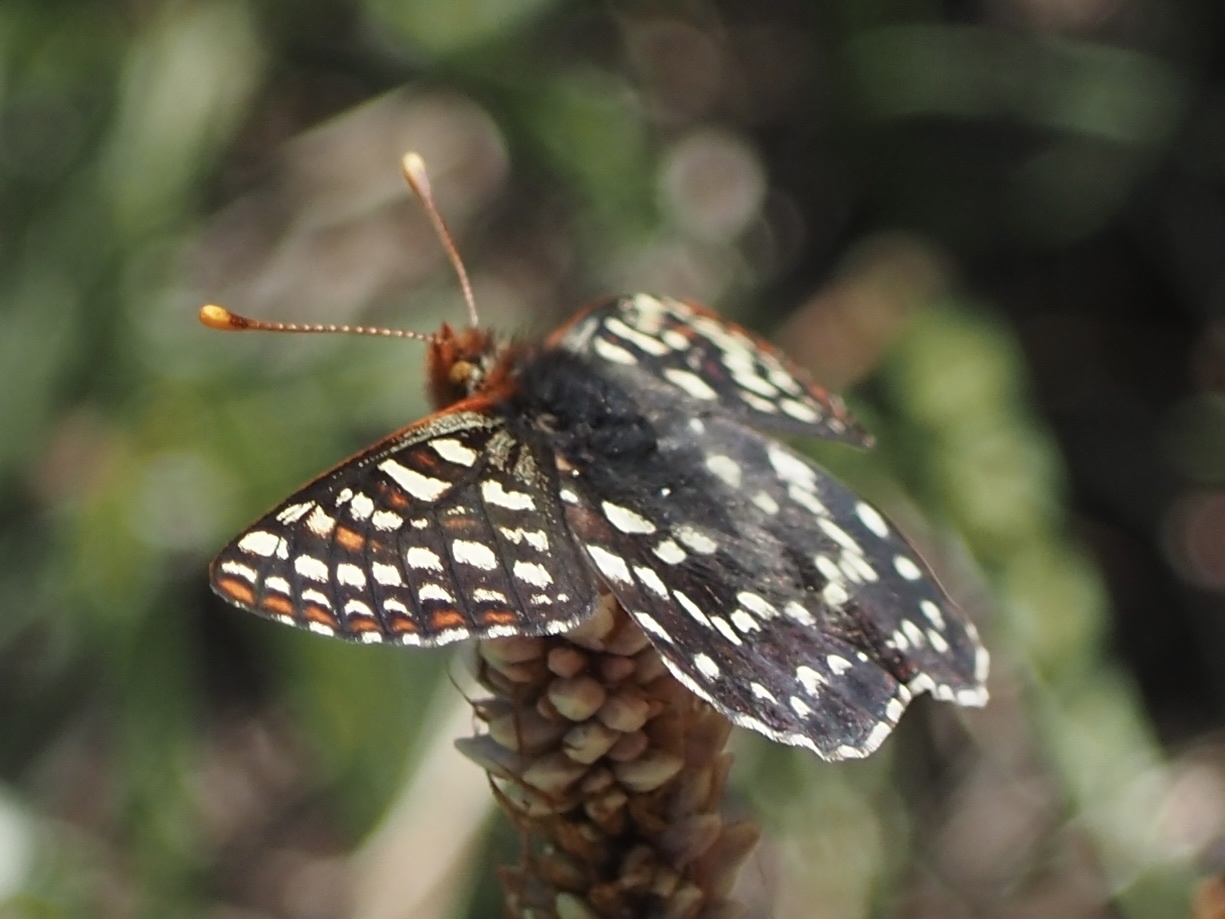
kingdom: Animalia
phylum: Arthropoda
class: Insecta
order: Lepidoptera
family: Nymphalidae
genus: Occidryas
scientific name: Occidryas colon
